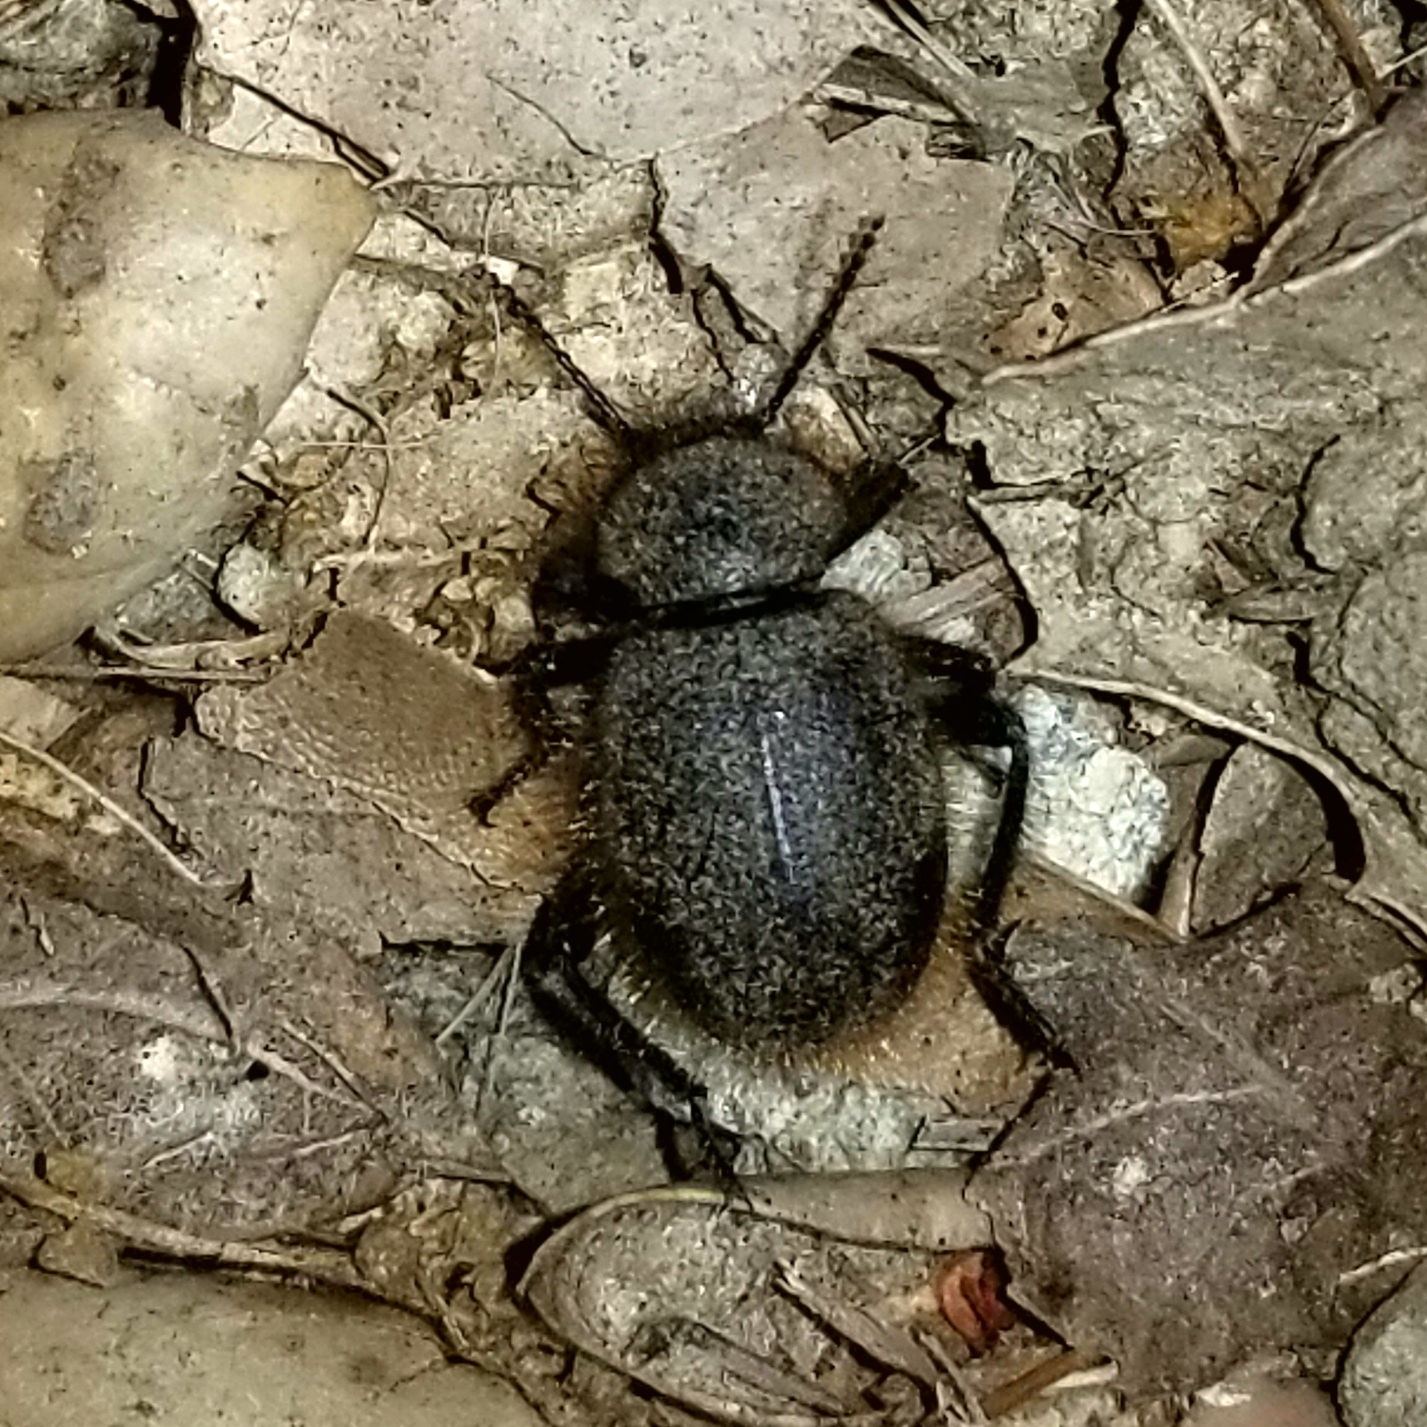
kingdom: Animalia
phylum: Arthropoda
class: Insecta
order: Coleoptera
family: Tenebrionidae
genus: Eleodes
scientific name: Eleodes osculans
